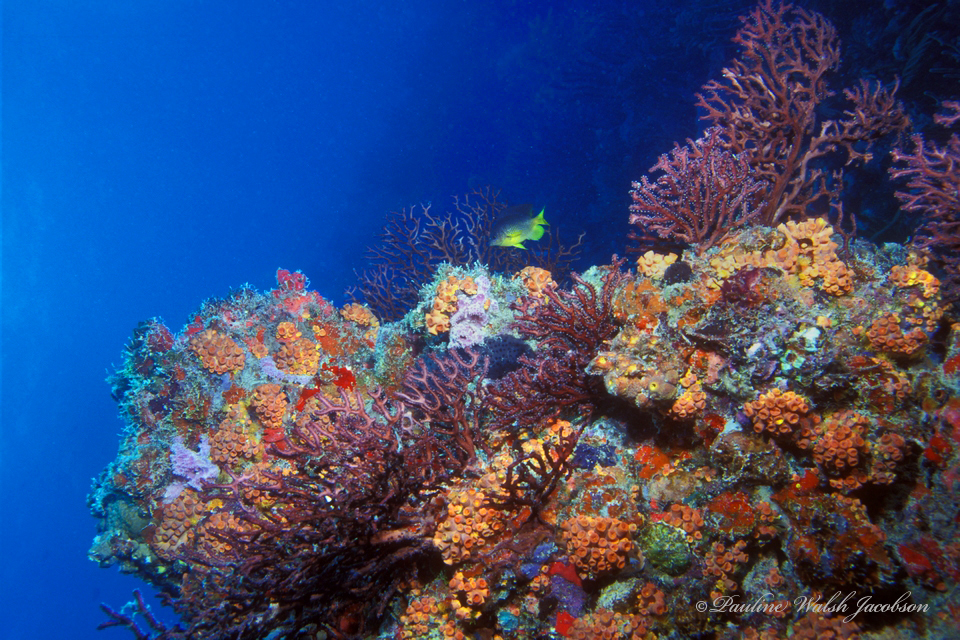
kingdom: Animalia
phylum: Cnidaria
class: Anthozoa
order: Malacalcyonacea
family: Melithaeidae
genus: Iciligorgia
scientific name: Iciligorgia schrammi
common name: Black sea fan
